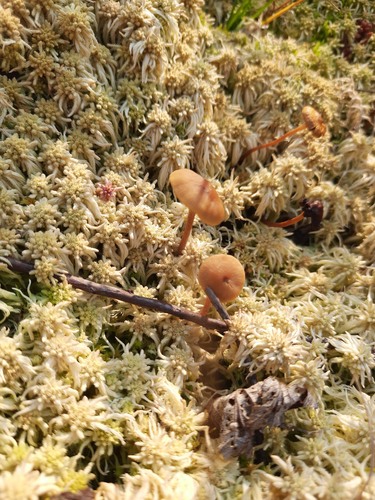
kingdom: Fungi
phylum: Basidiomycota
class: Agaricomycetes
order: Agaricales
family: Strophariaceae
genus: Hypholoma
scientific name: Hypholoma
